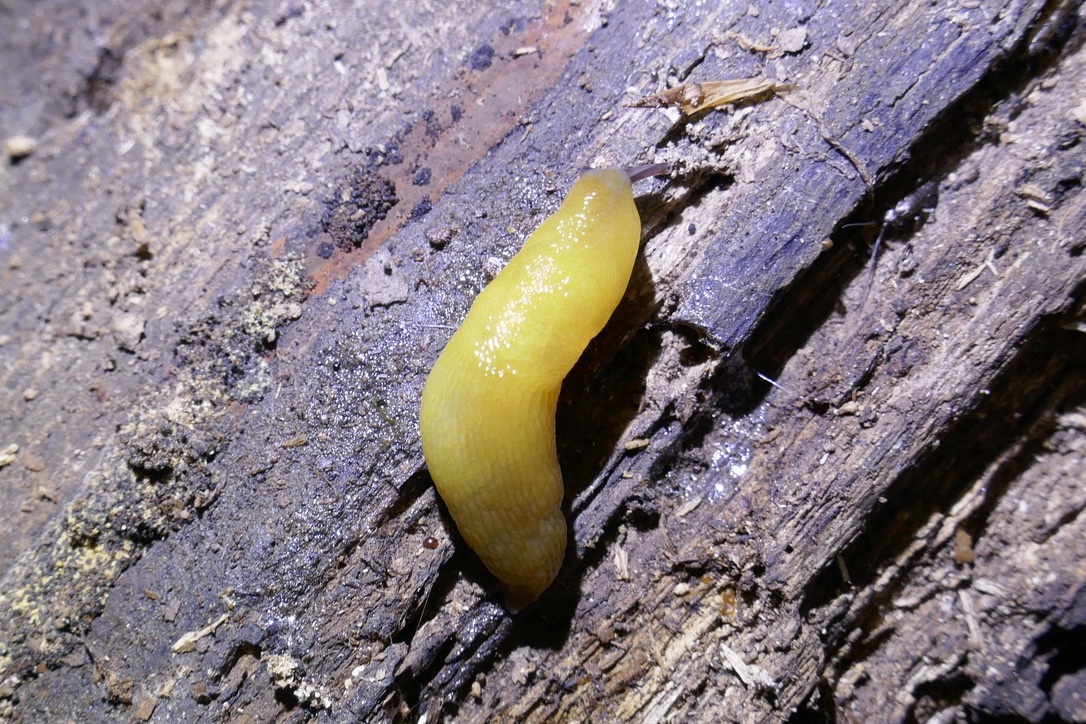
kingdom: Animalia
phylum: Mollusca
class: Gastropoda
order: Stylommatophora
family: Limacidae
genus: Malacolimax
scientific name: Malacolimax tenellus
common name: Lemon slug
